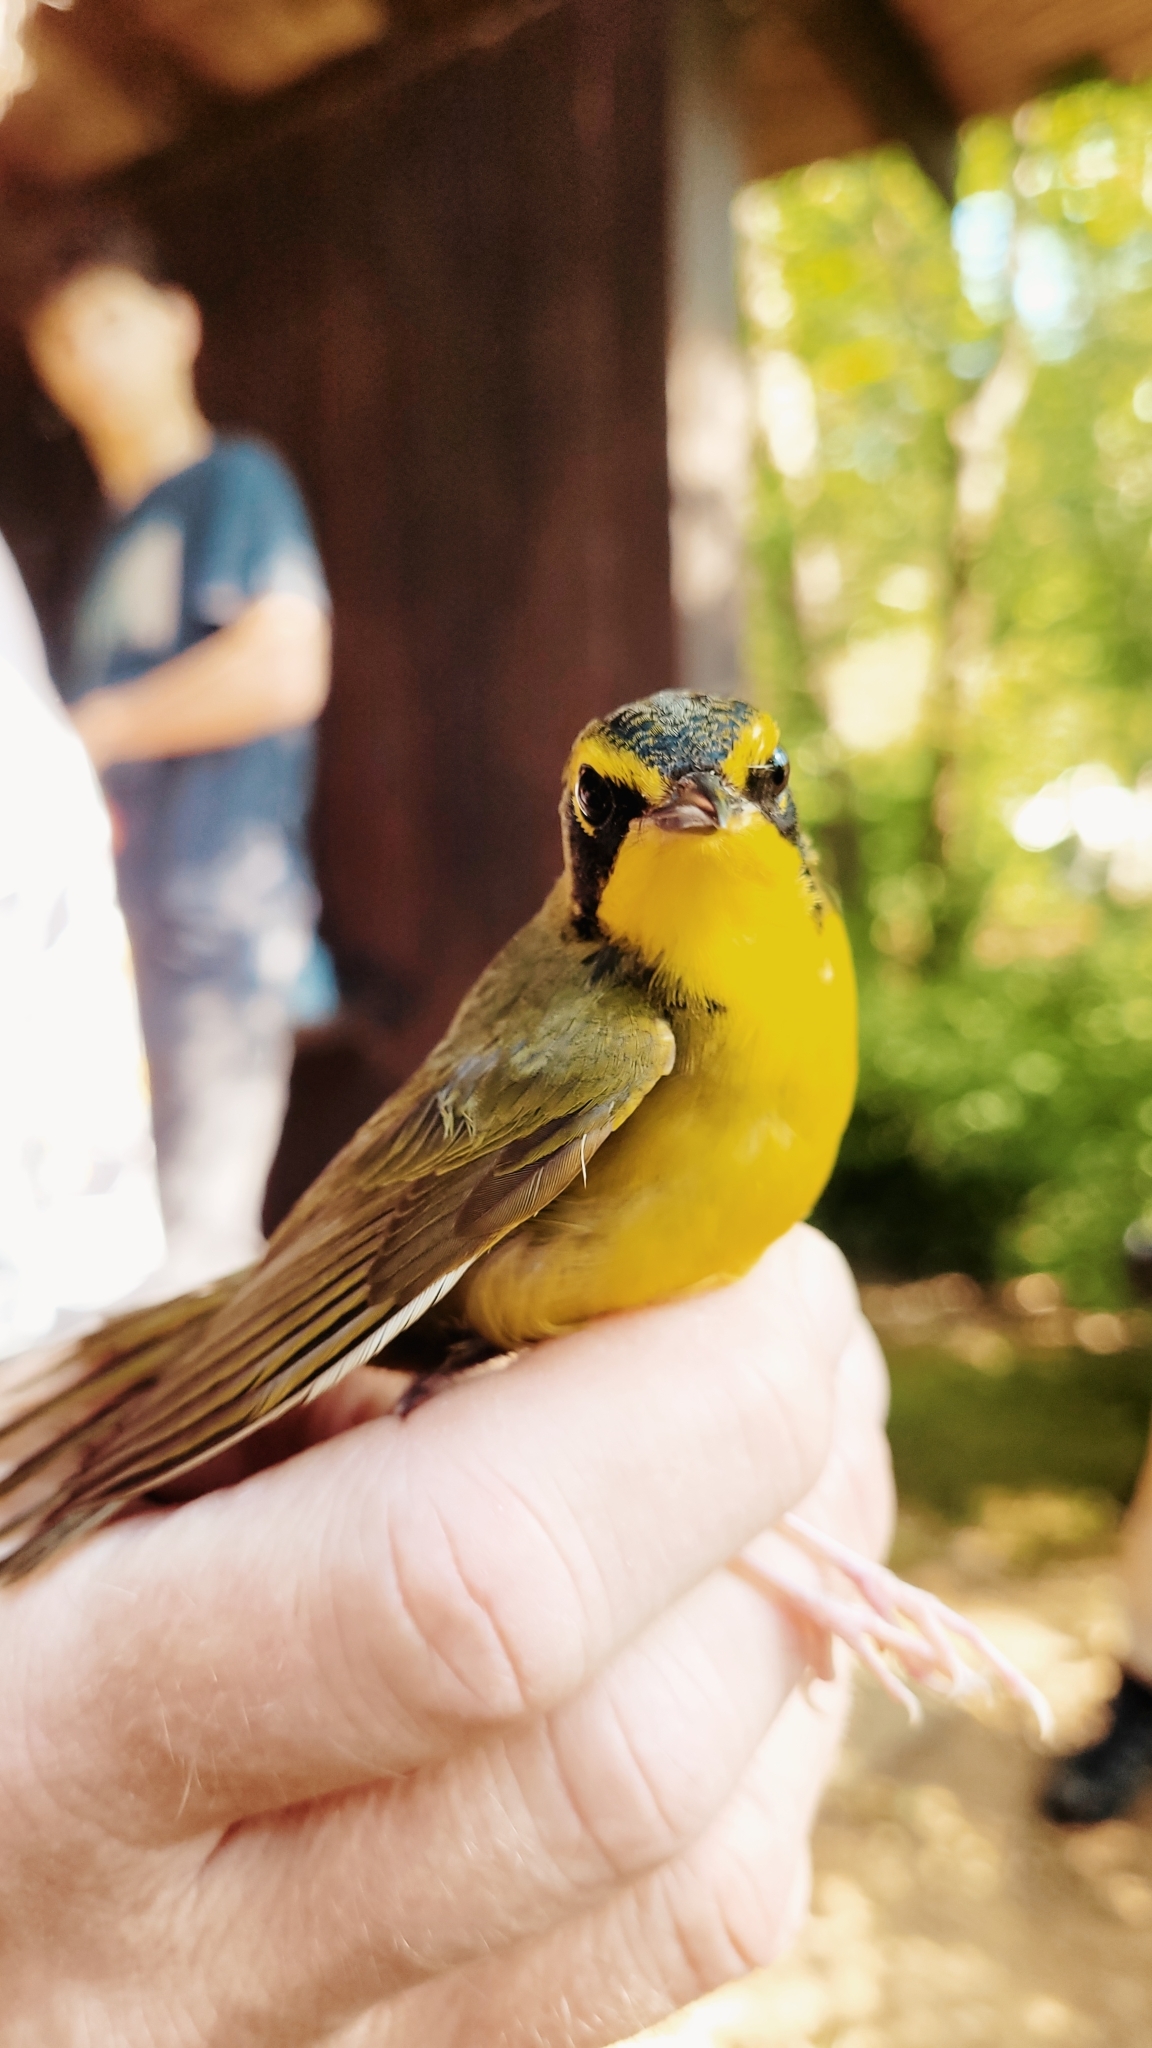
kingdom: Animalia
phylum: Chordata
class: Aves
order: Passeriformes
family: Parulidae
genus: Geothlypis
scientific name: Geothlypis formosa
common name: Kentucky warbler
